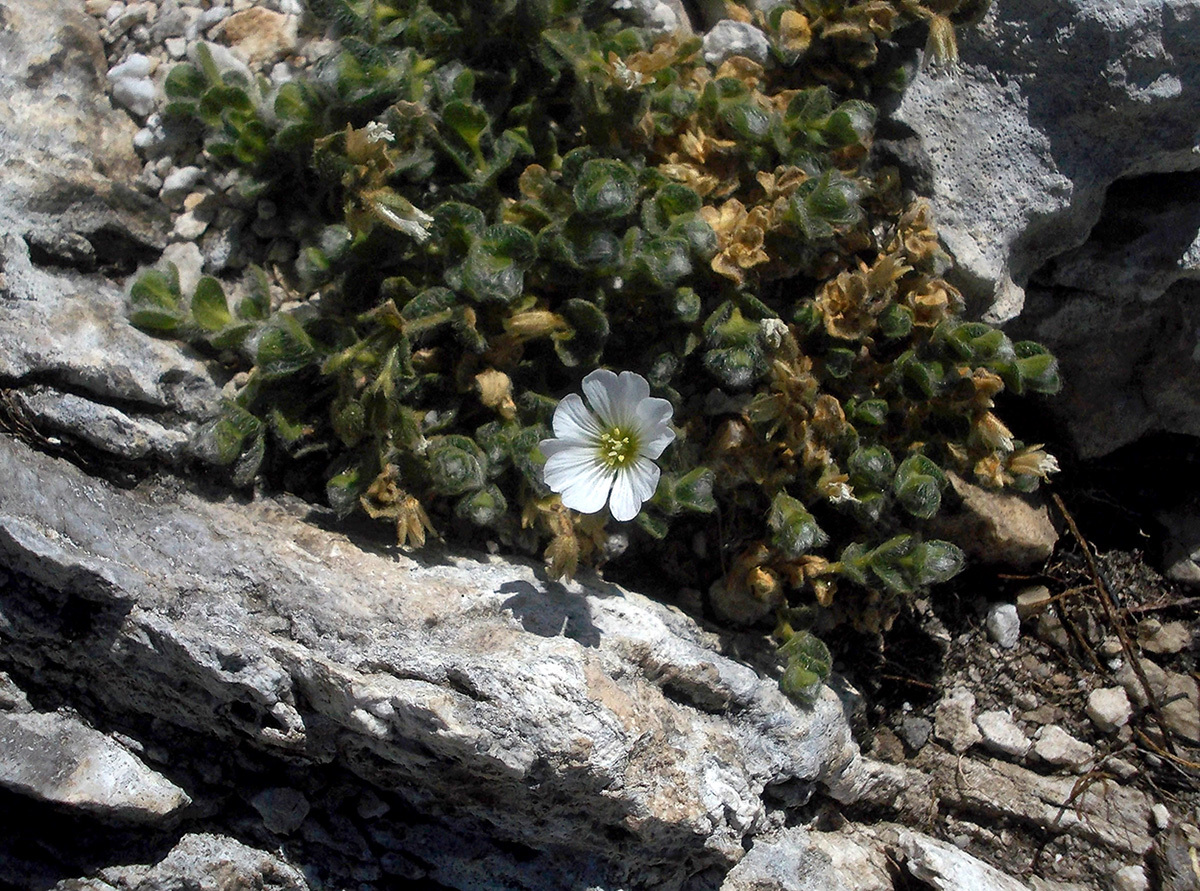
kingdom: Plantae
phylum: Tracheophyta
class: Magnoliopsida
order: Caryophyllales
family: Caryophyllaceae
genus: Cerastium
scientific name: Cerastium alpinum
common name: Alpine mouse-ear
